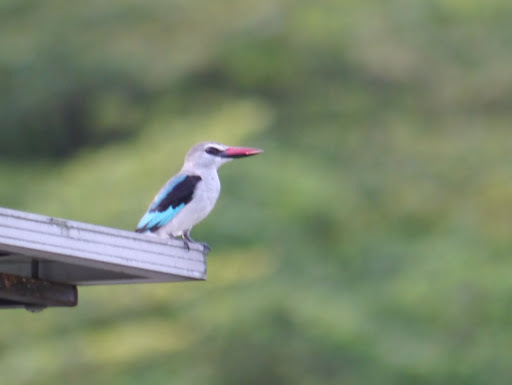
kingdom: Animalia
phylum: Chordata
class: Aves
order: Coraciiformes
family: Alcedinidae
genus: Halcyon
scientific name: Halcyon senegalensis
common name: Woodland kingfisher
